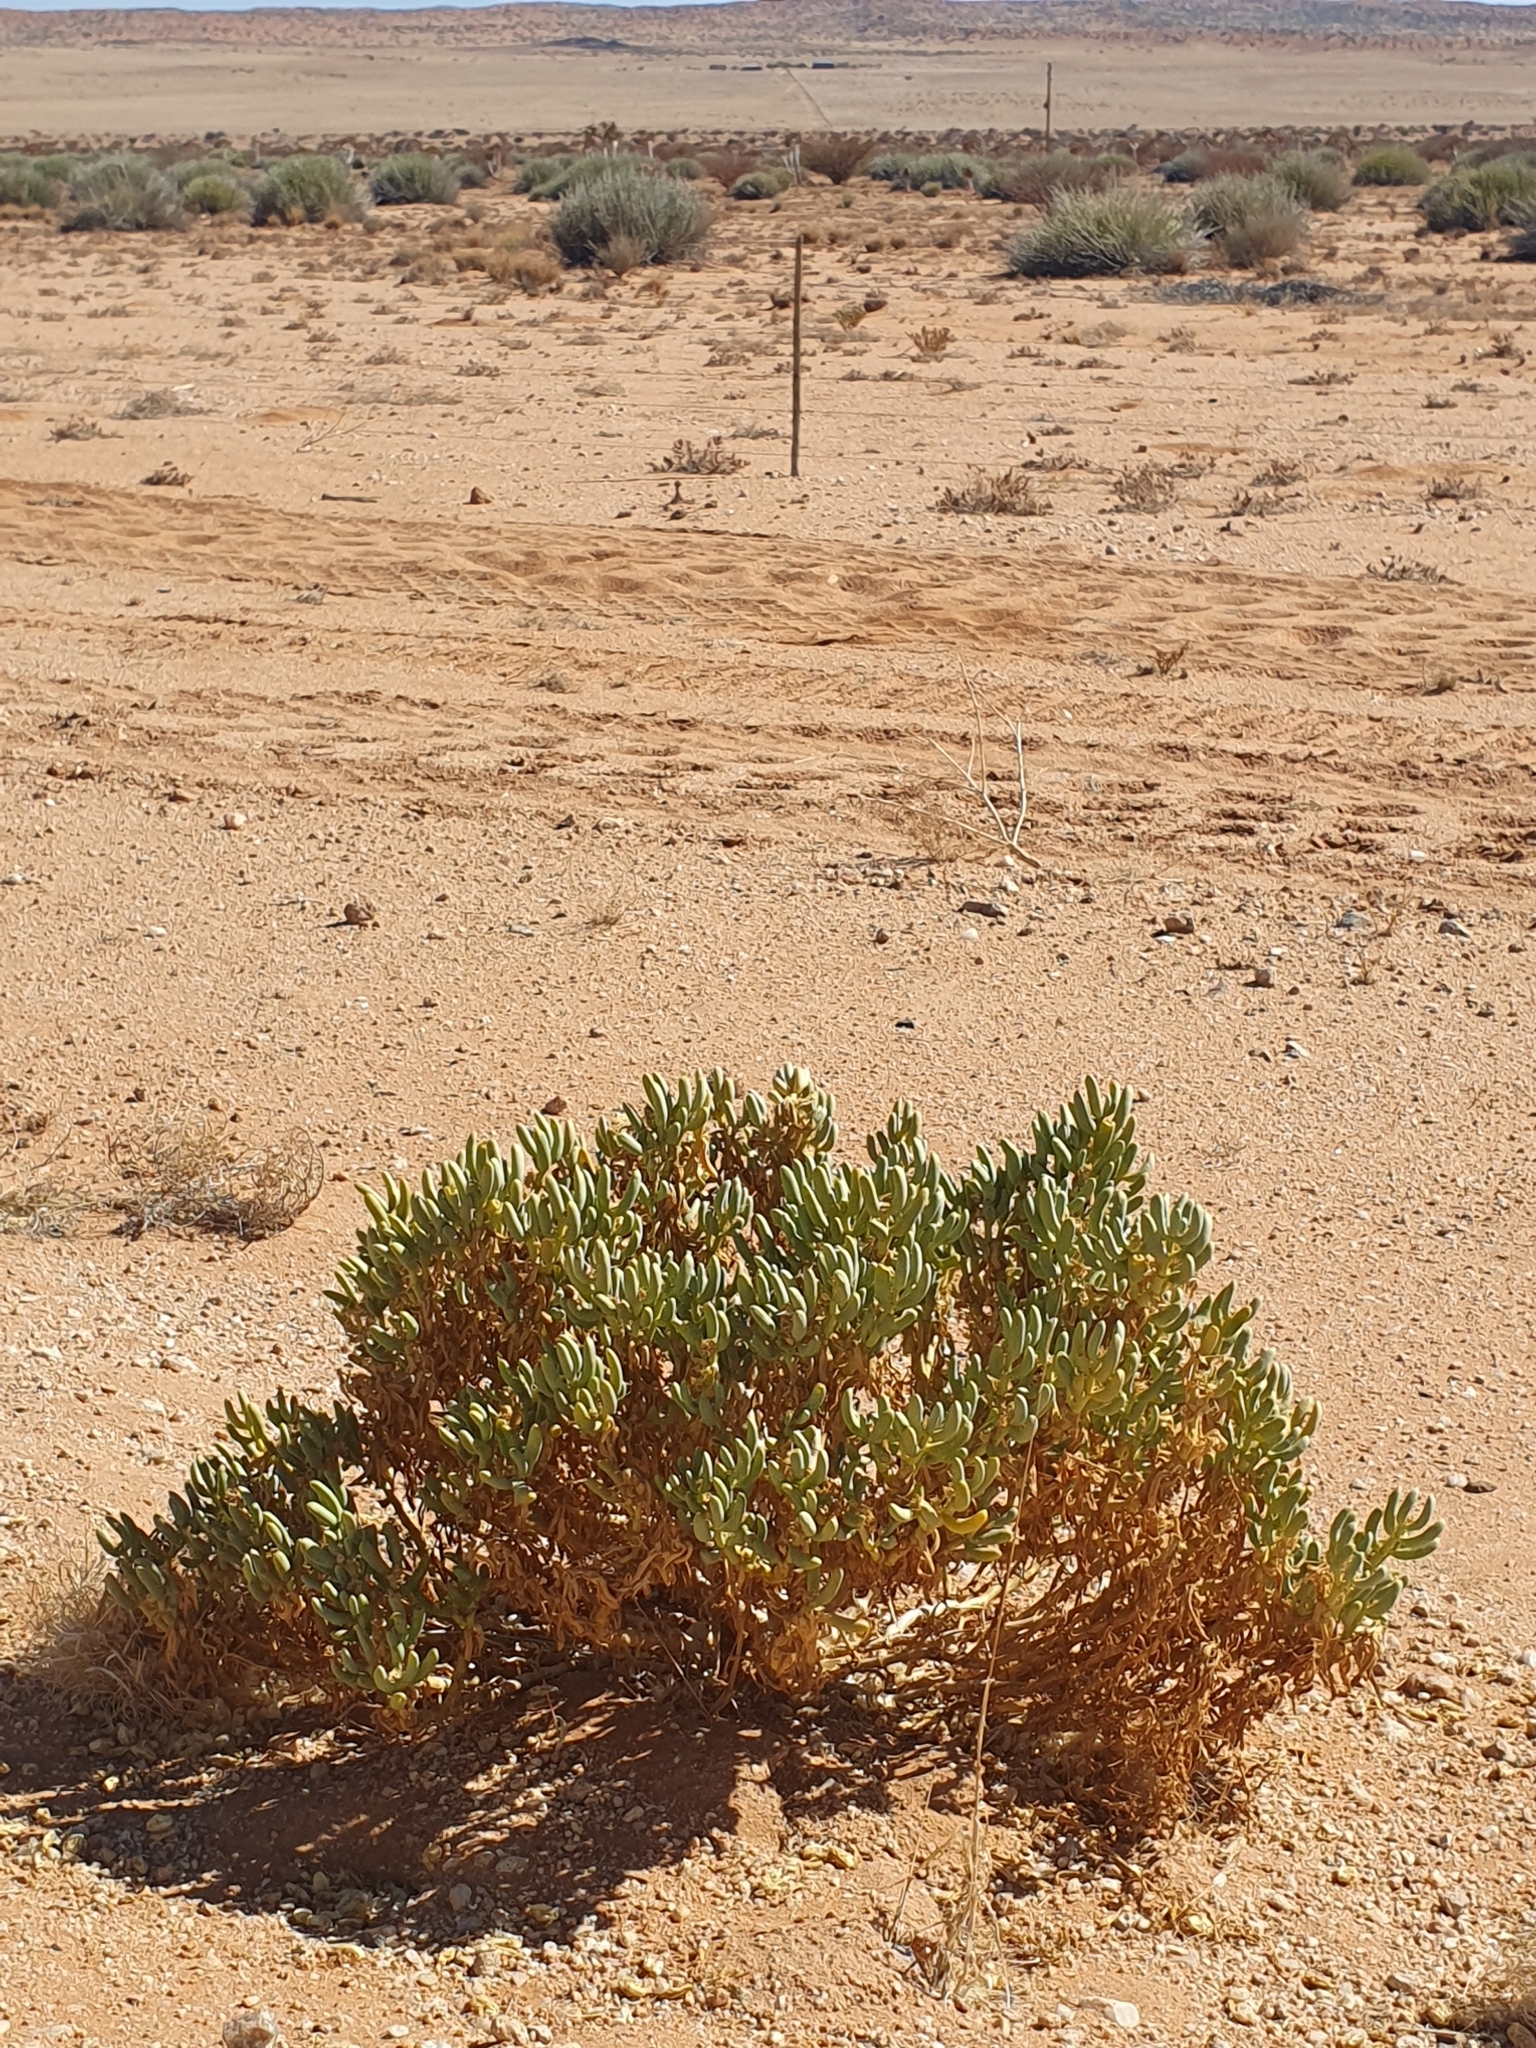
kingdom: Plantae
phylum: Tracheophyta
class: Magnoliopsida
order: Zygophyllales
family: Zygophyllaceae
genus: Augea
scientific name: Augea capensis
